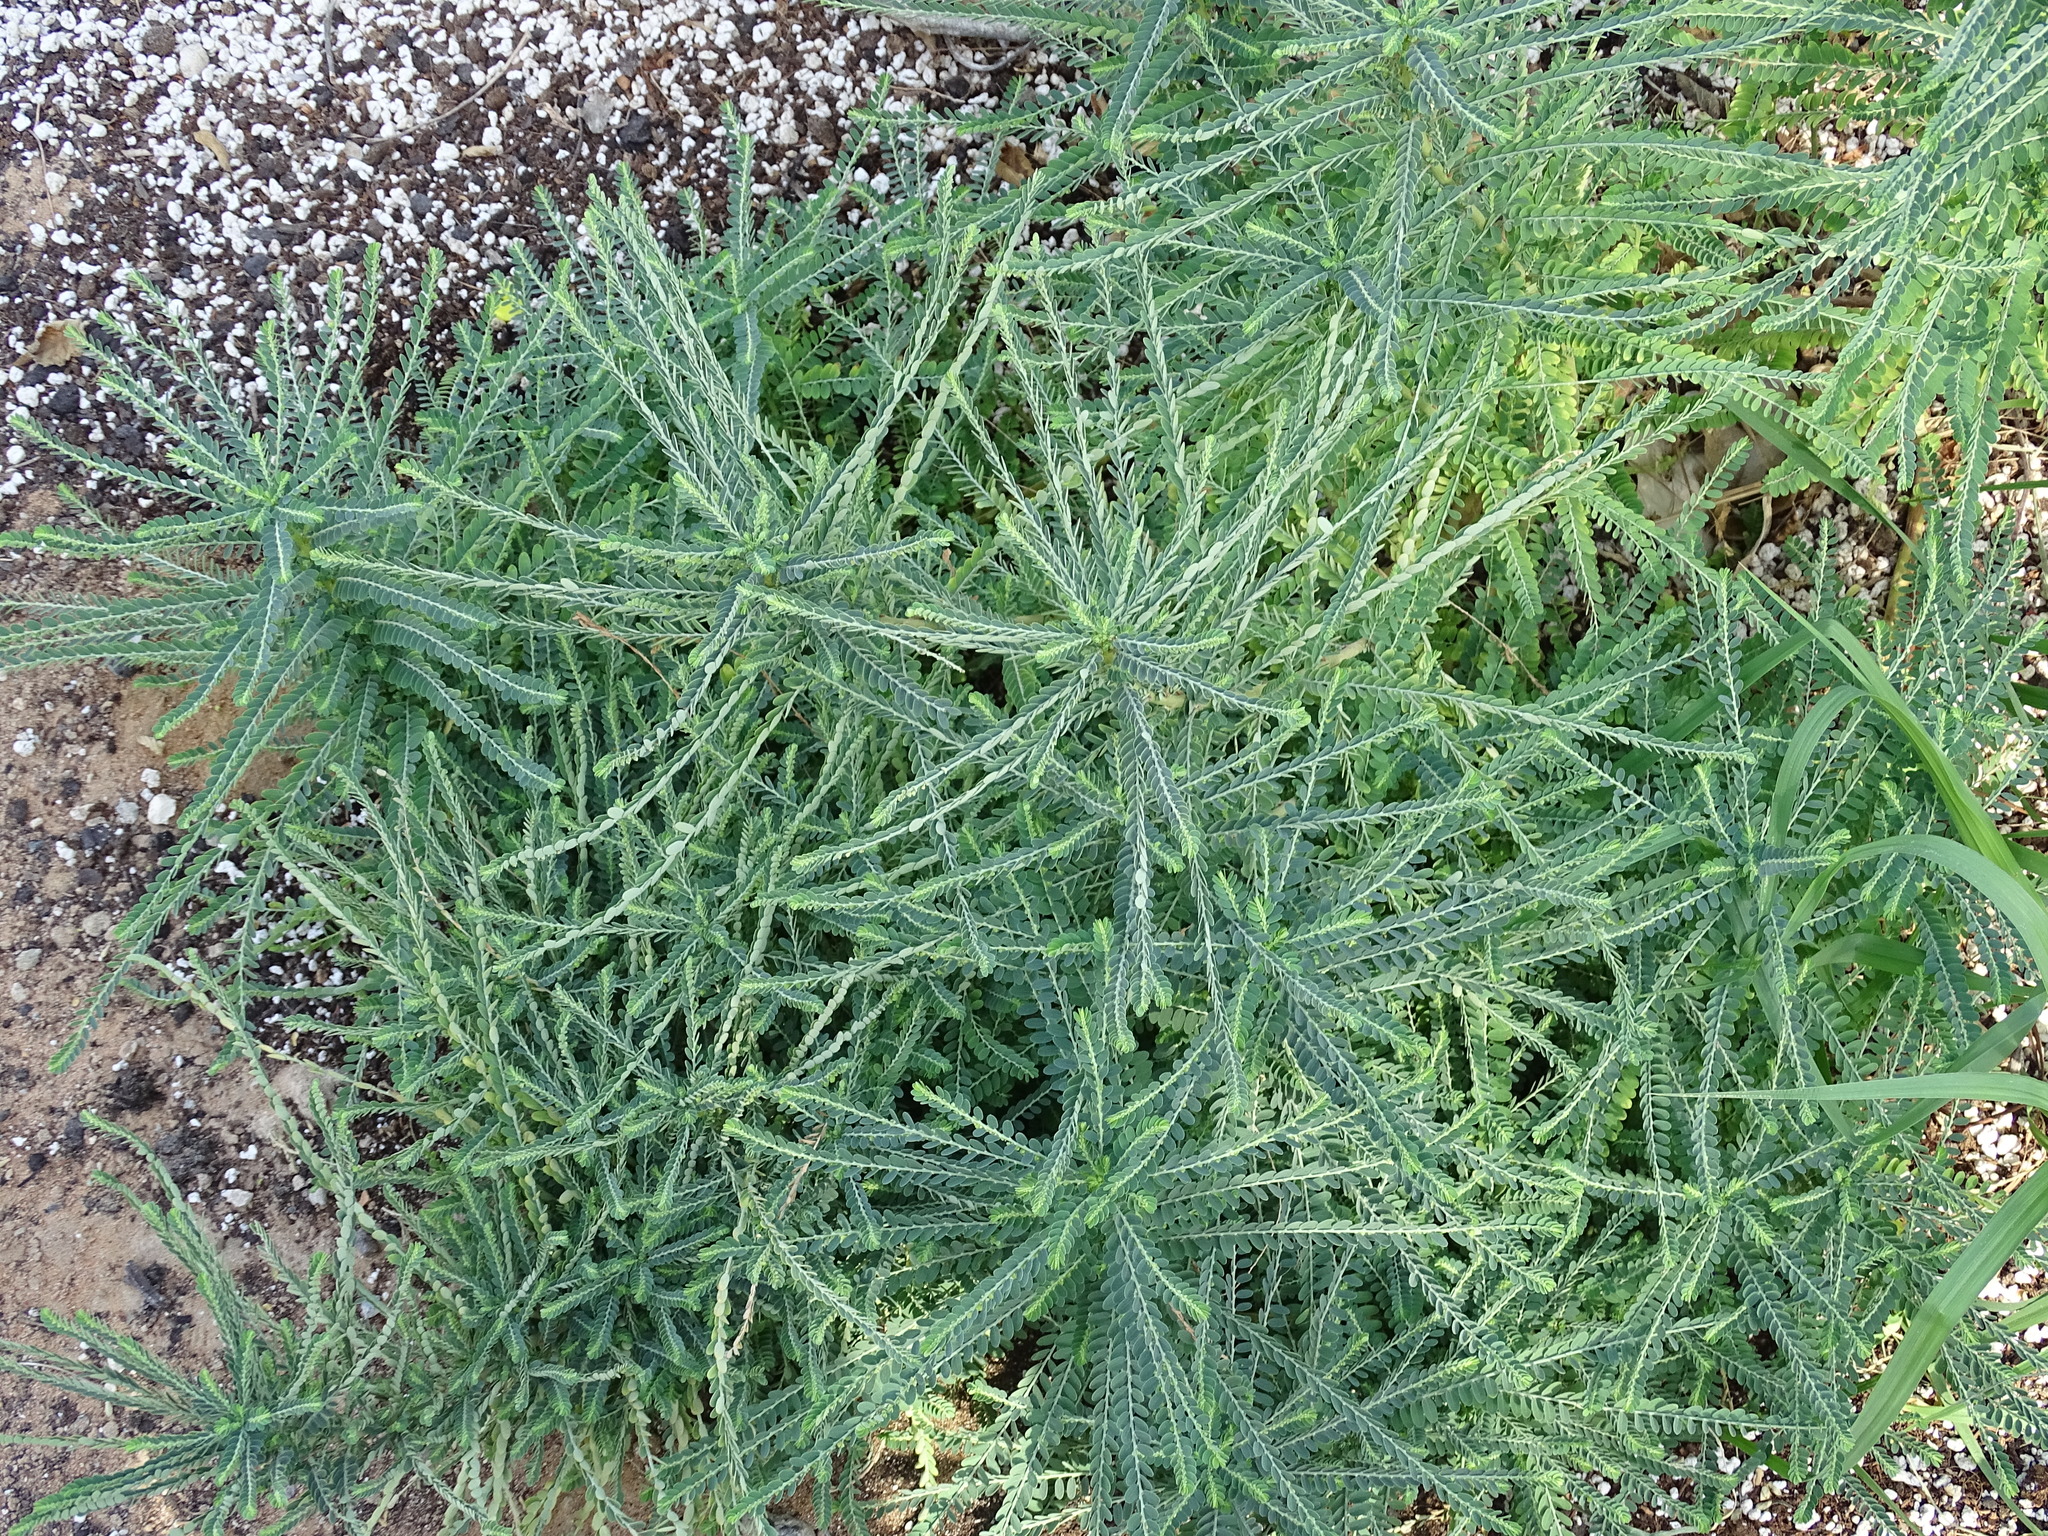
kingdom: Plantae
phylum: Tracheophyta
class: Magnoliopsida
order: Malpighiales
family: Phyllanthaceae
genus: Phyllanthus
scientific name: Phyllanthus rotundifolius
